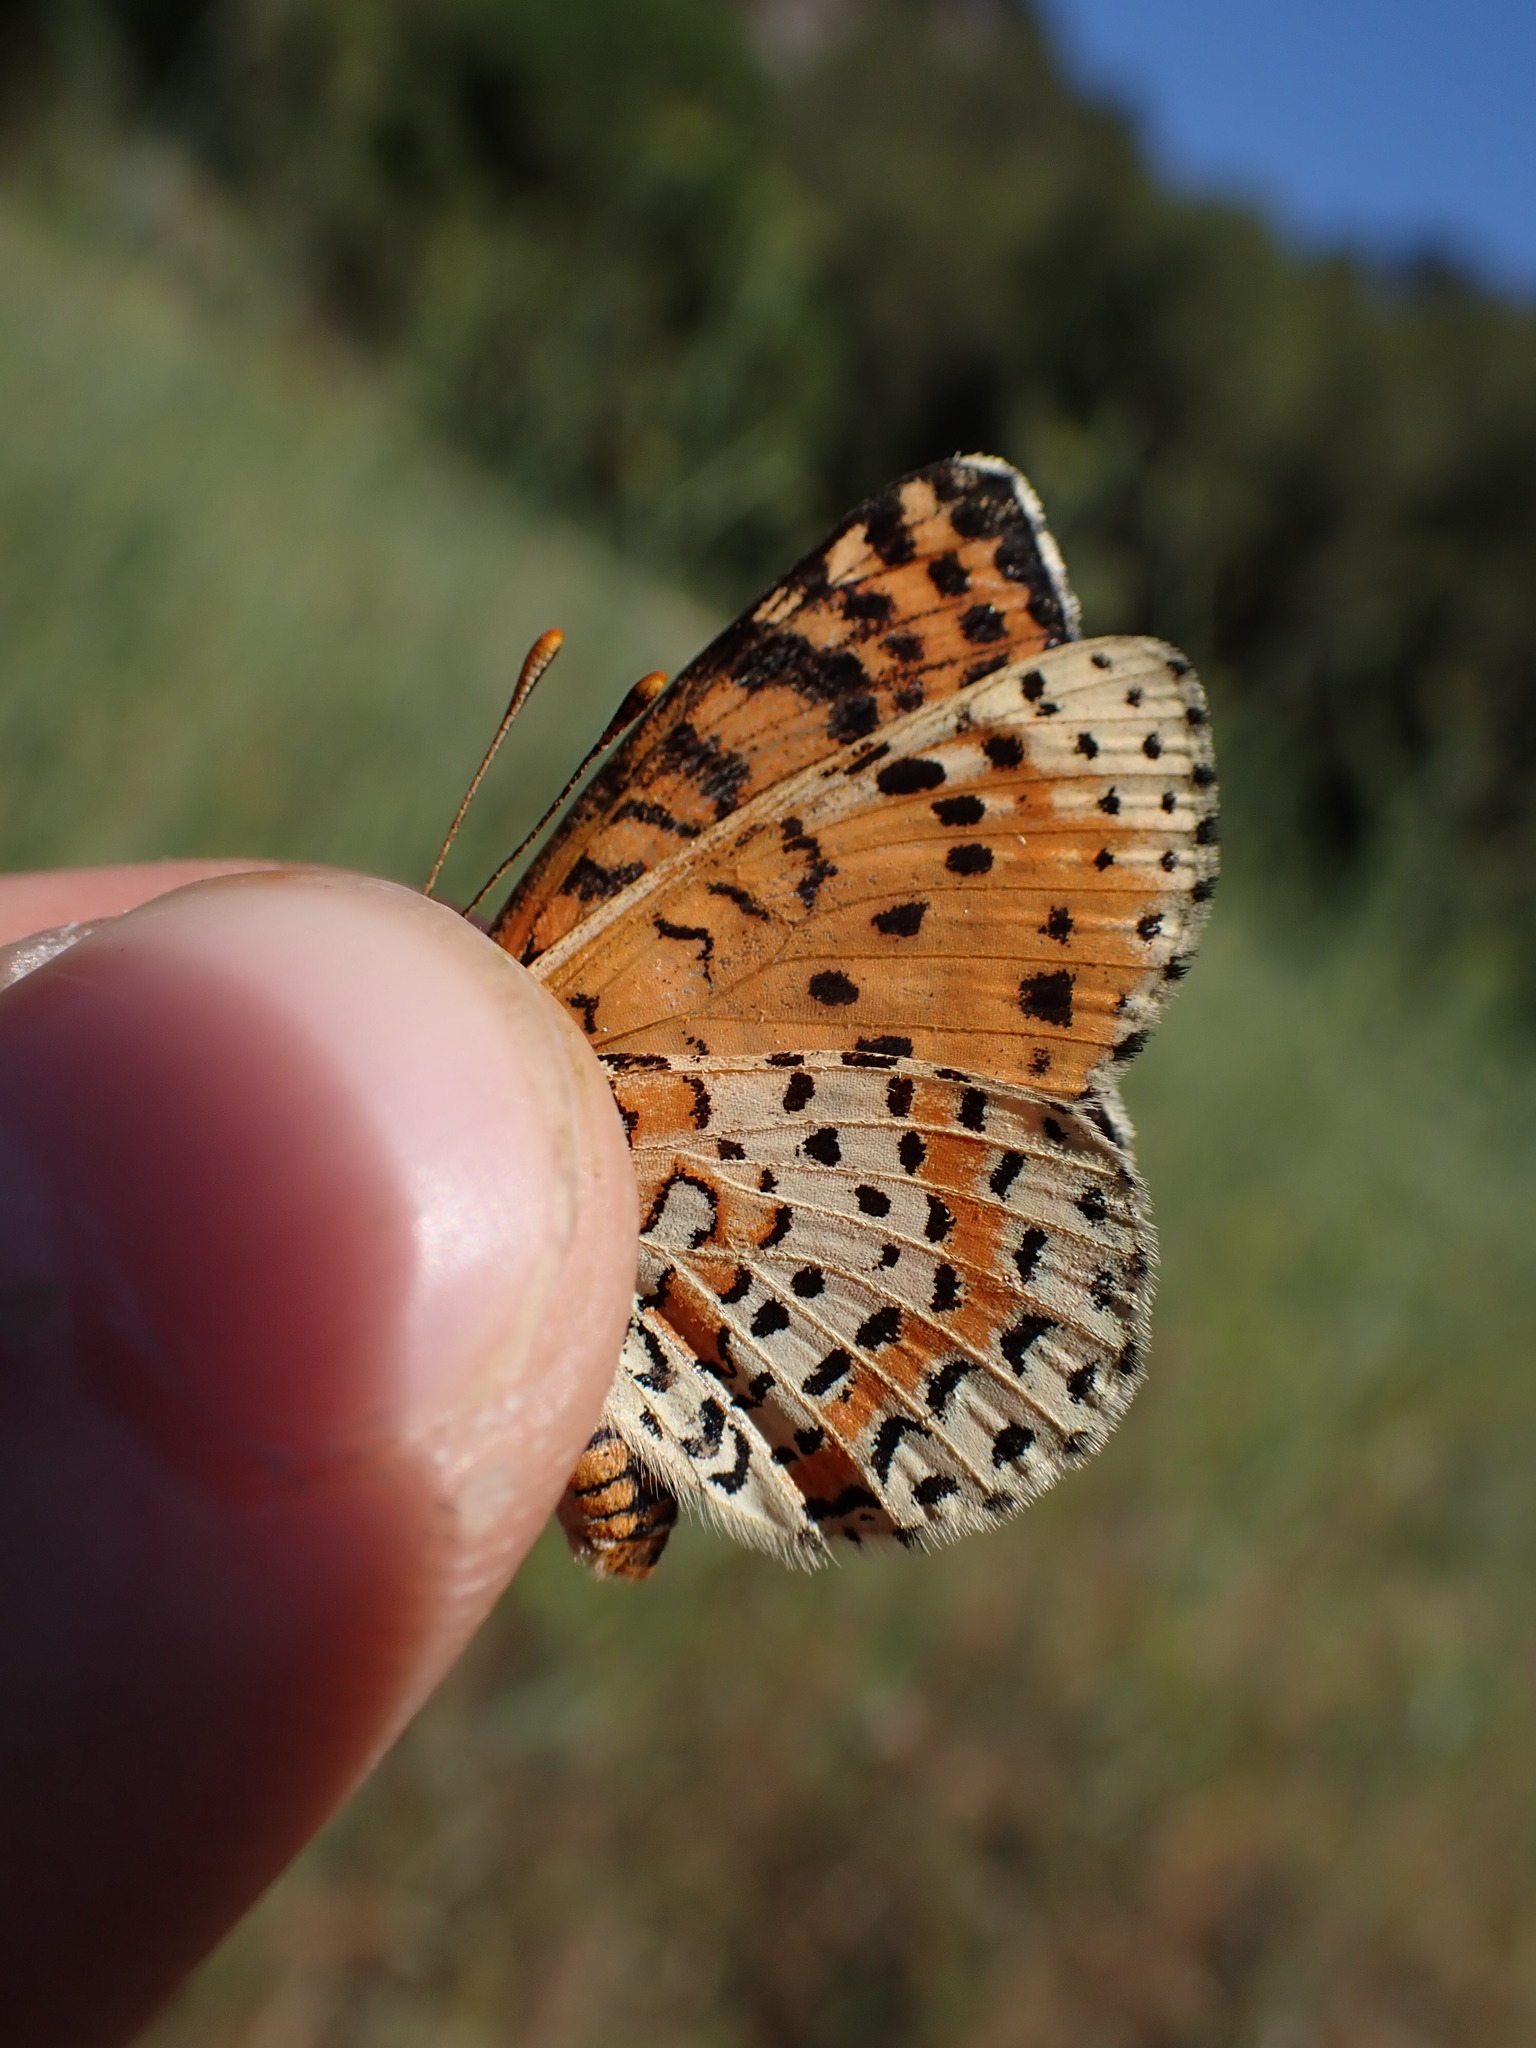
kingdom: Animalia
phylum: Arthropoda
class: Insecta
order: Lepidoptera
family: Nymphalidae
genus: Melitaea
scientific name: Melitaea didyma
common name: Spotted fritillary
